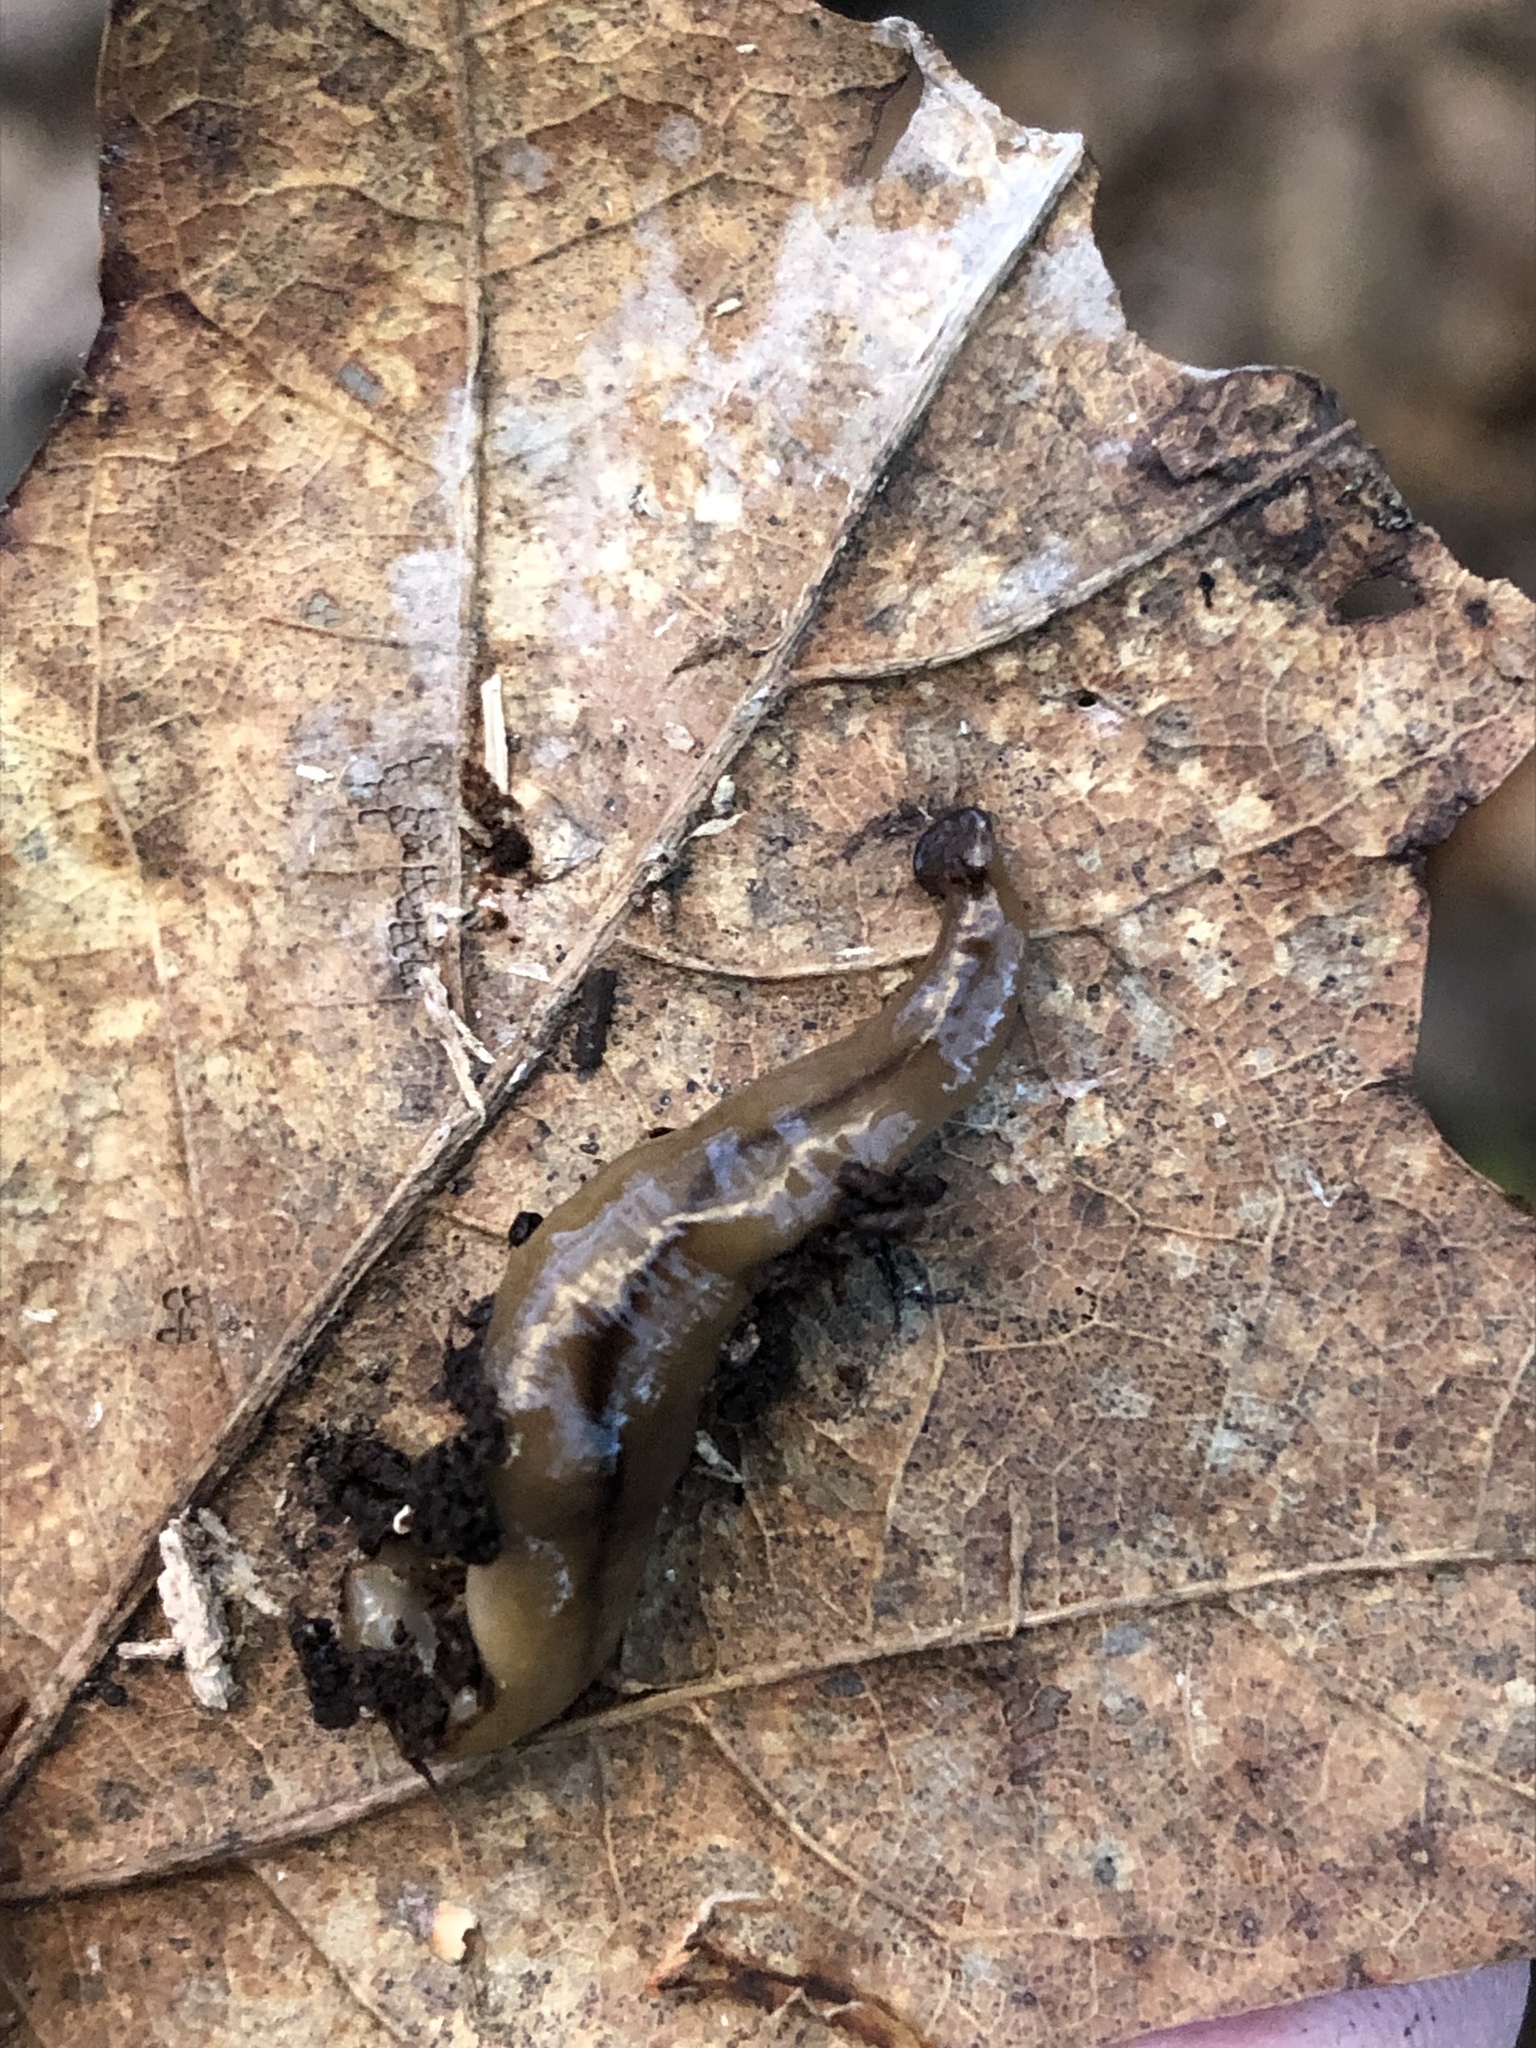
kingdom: Animalia
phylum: Platyhelminthes
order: Tricladida
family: Geoplanidae
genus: Bipalium
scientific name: Bipalium adventitium
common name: Land planarian
